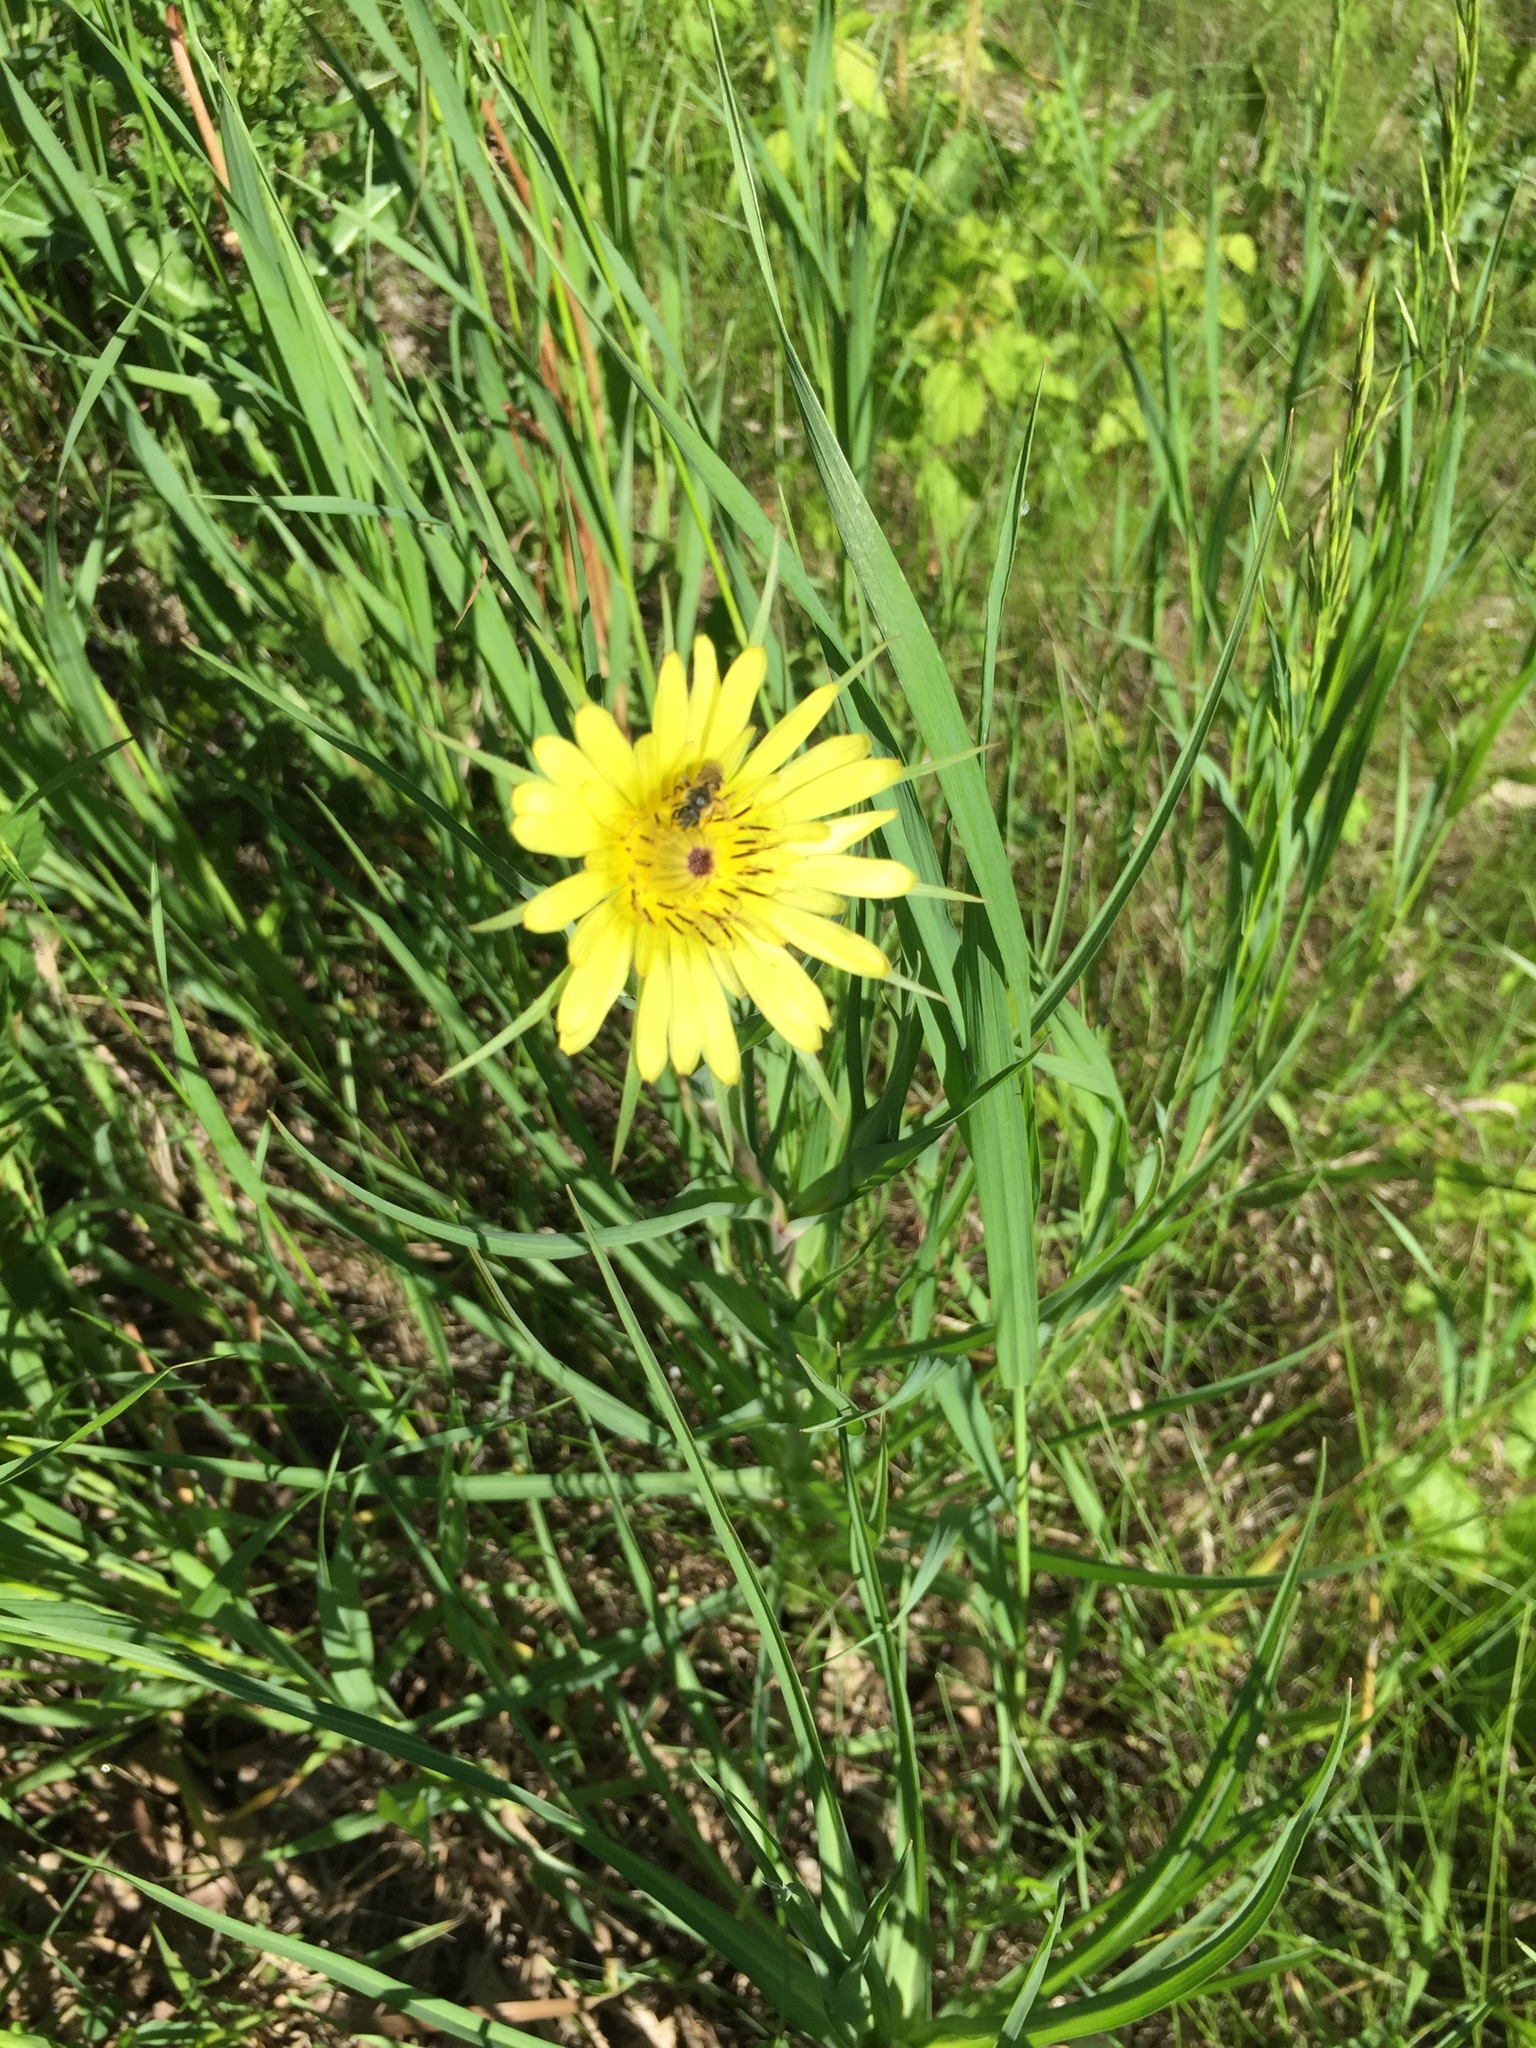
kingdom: Plantae
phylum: Tracheophyta
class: Magnoliopsida
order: Asterales
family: Asteraceae
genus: Tragopogon
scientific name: Tragopogon dubius
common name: Yellow salsify
